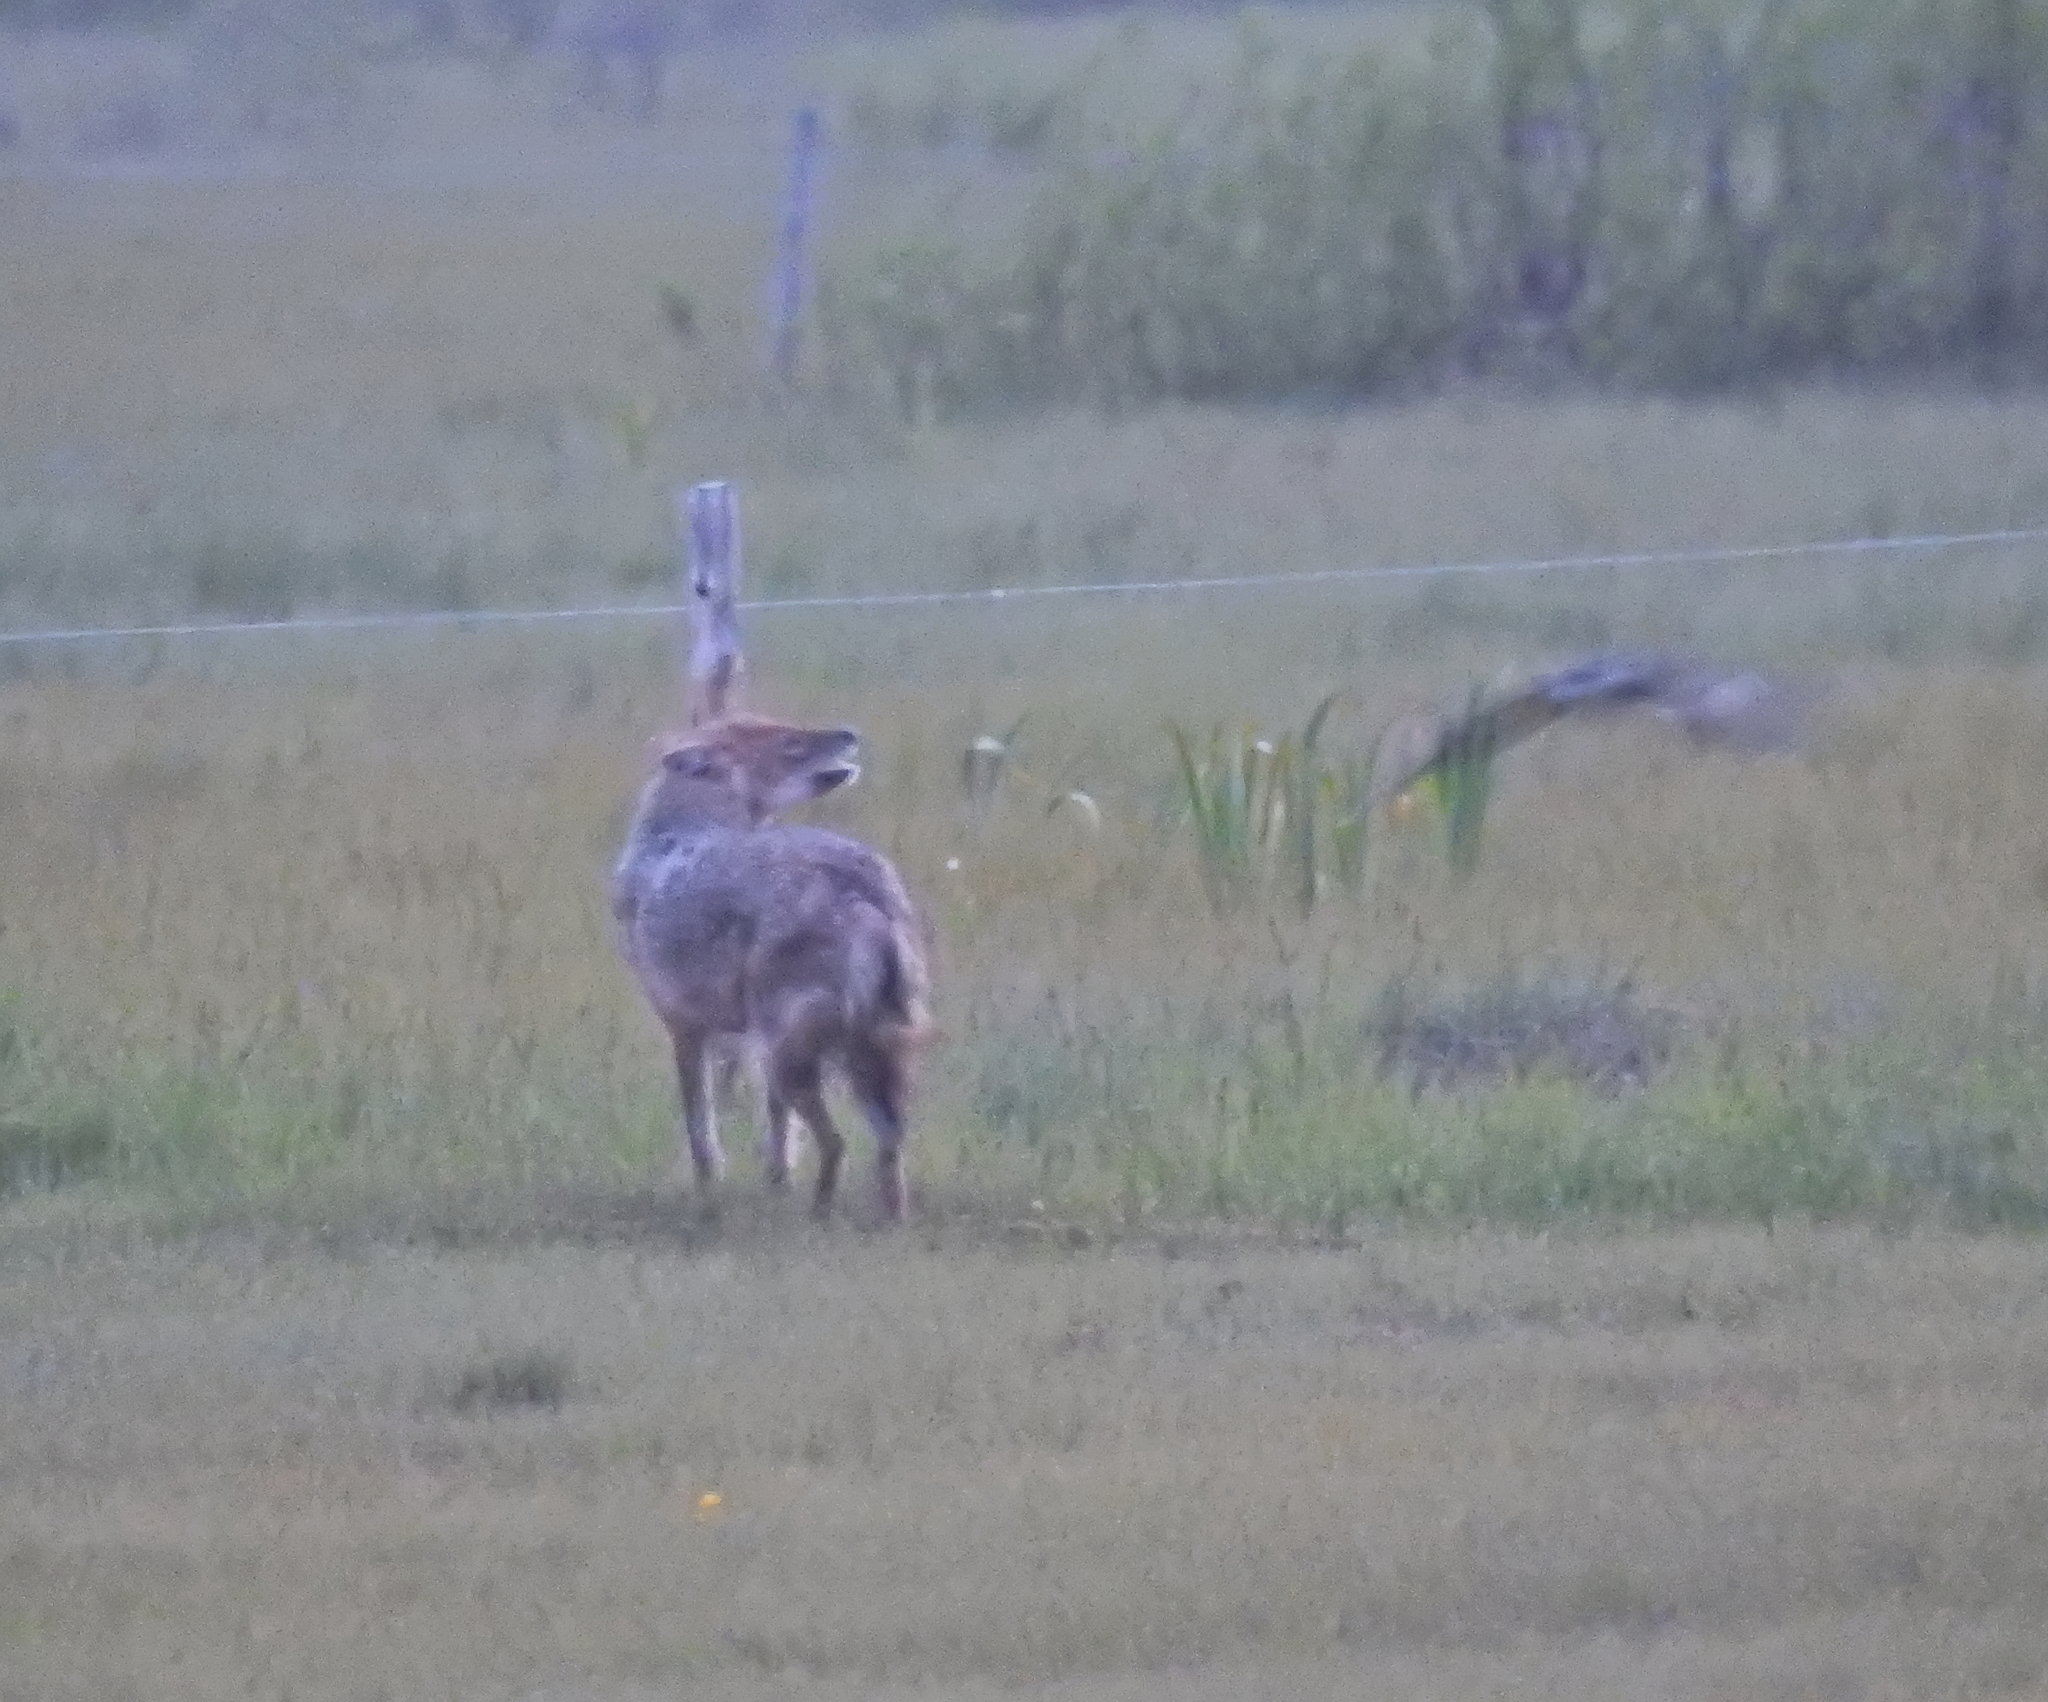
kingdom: Animalia
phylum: Chordata
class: Mammalia
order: Carnivora
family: Canidae
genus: Canis
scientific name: Canis aureus
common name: Golden jackal
